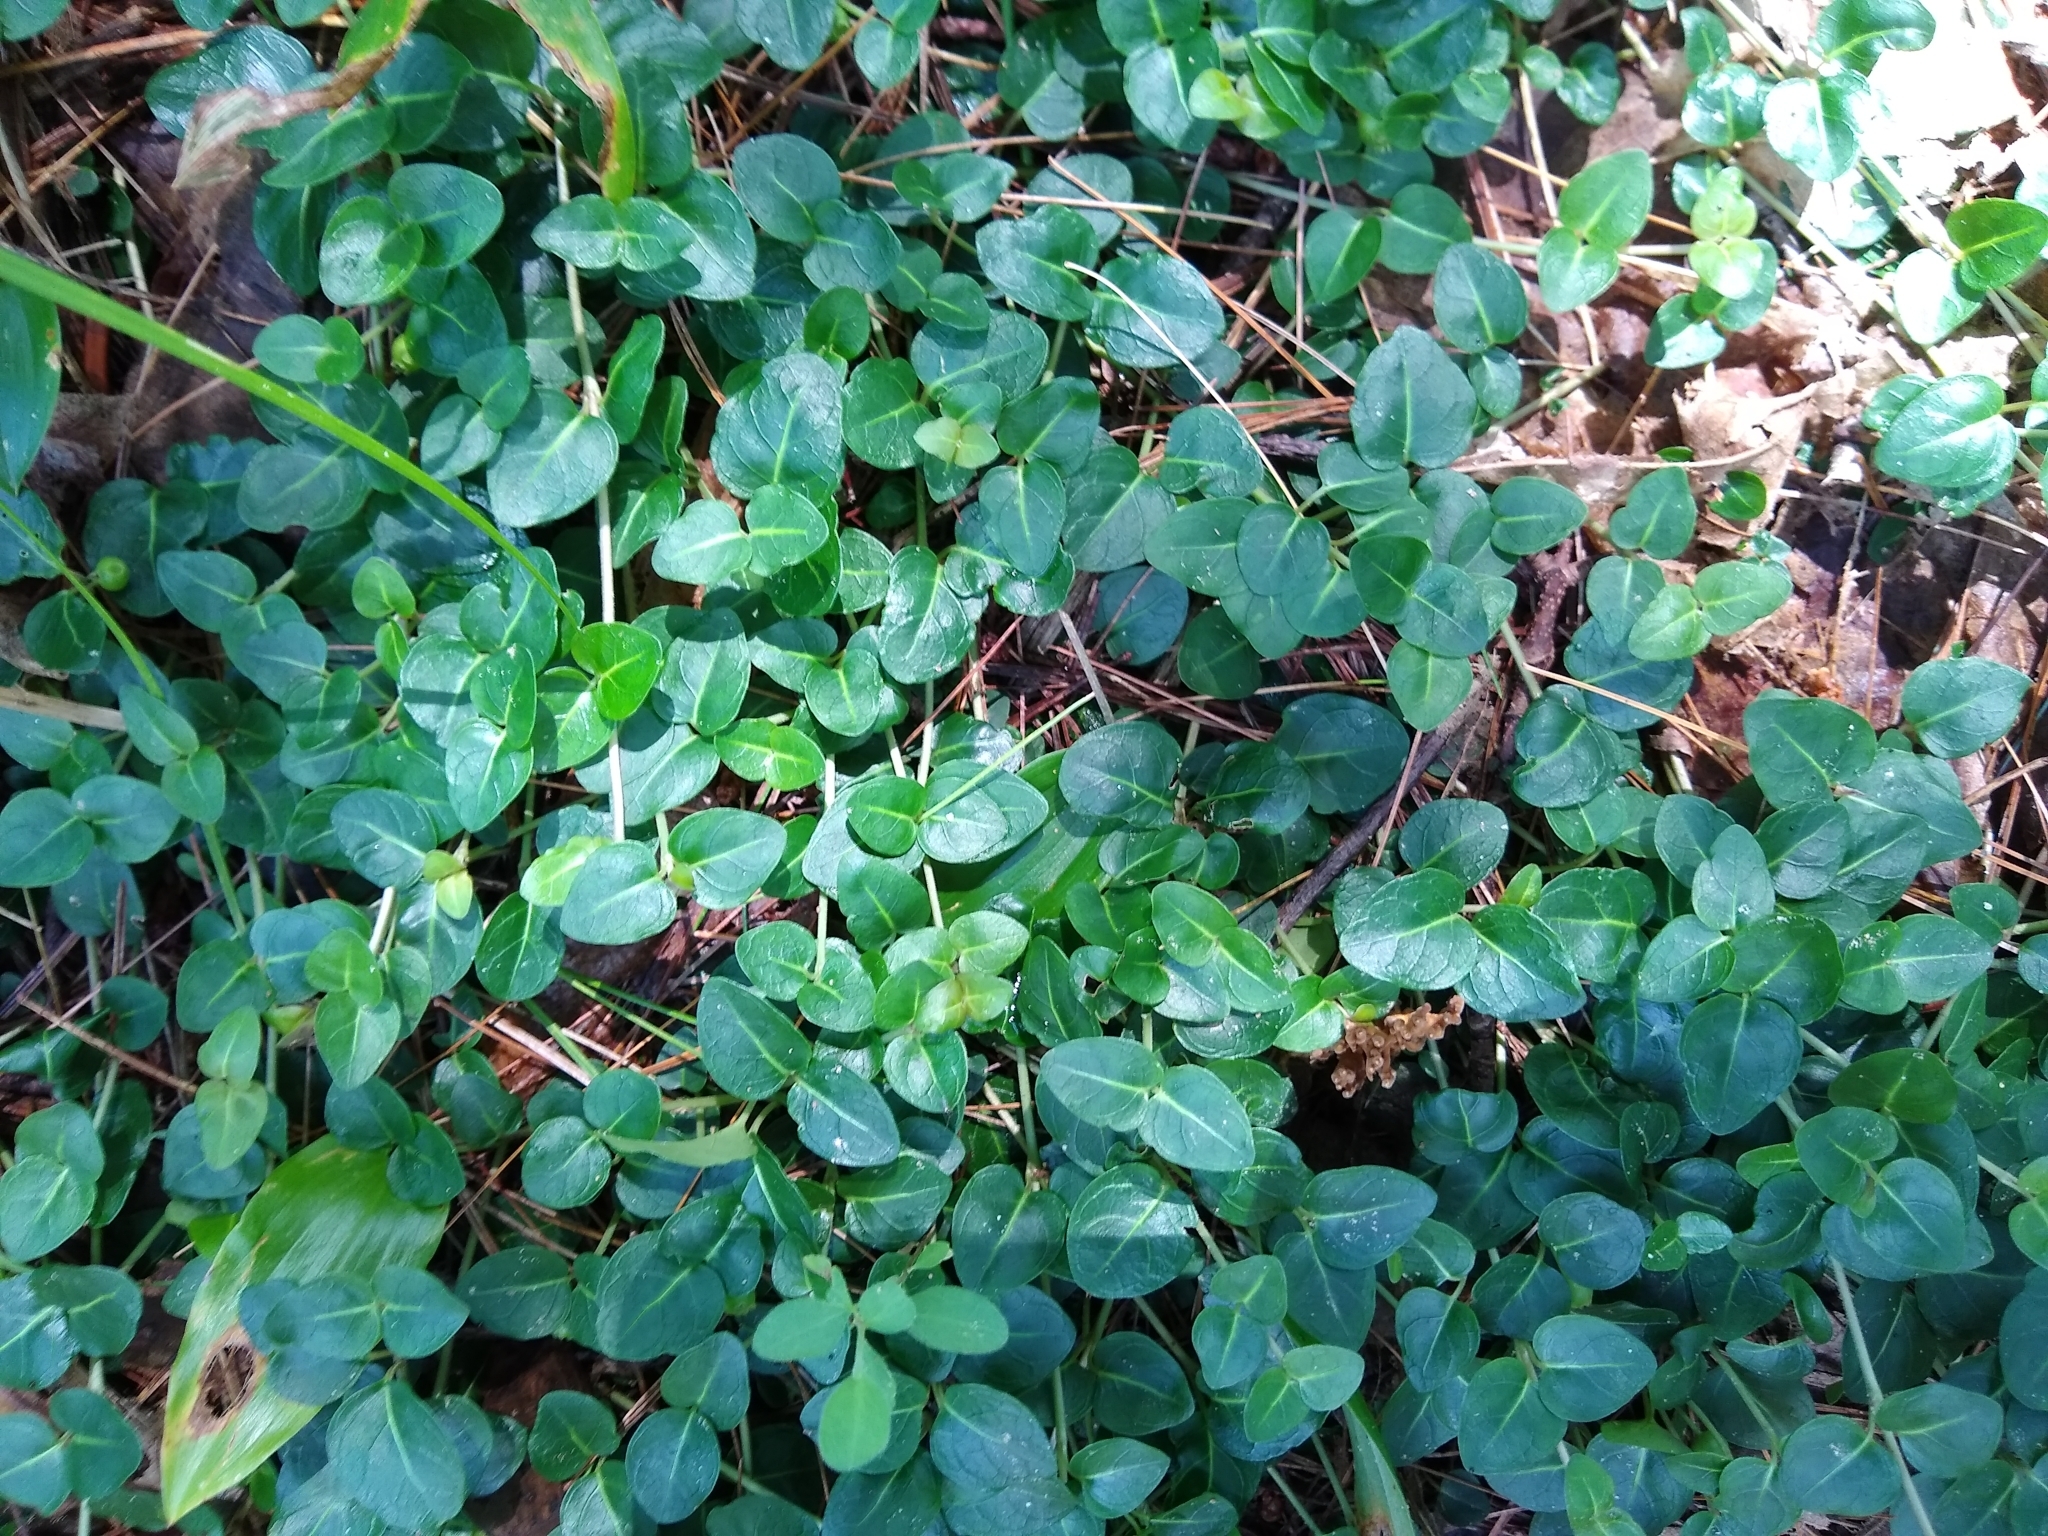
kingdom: Plantae
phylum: Tracheophyta
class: Magnoliopsida
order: Gentianales
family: Rubiaceae
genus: Mitchella
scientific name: Mitchella repens
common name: Partridge-berry
